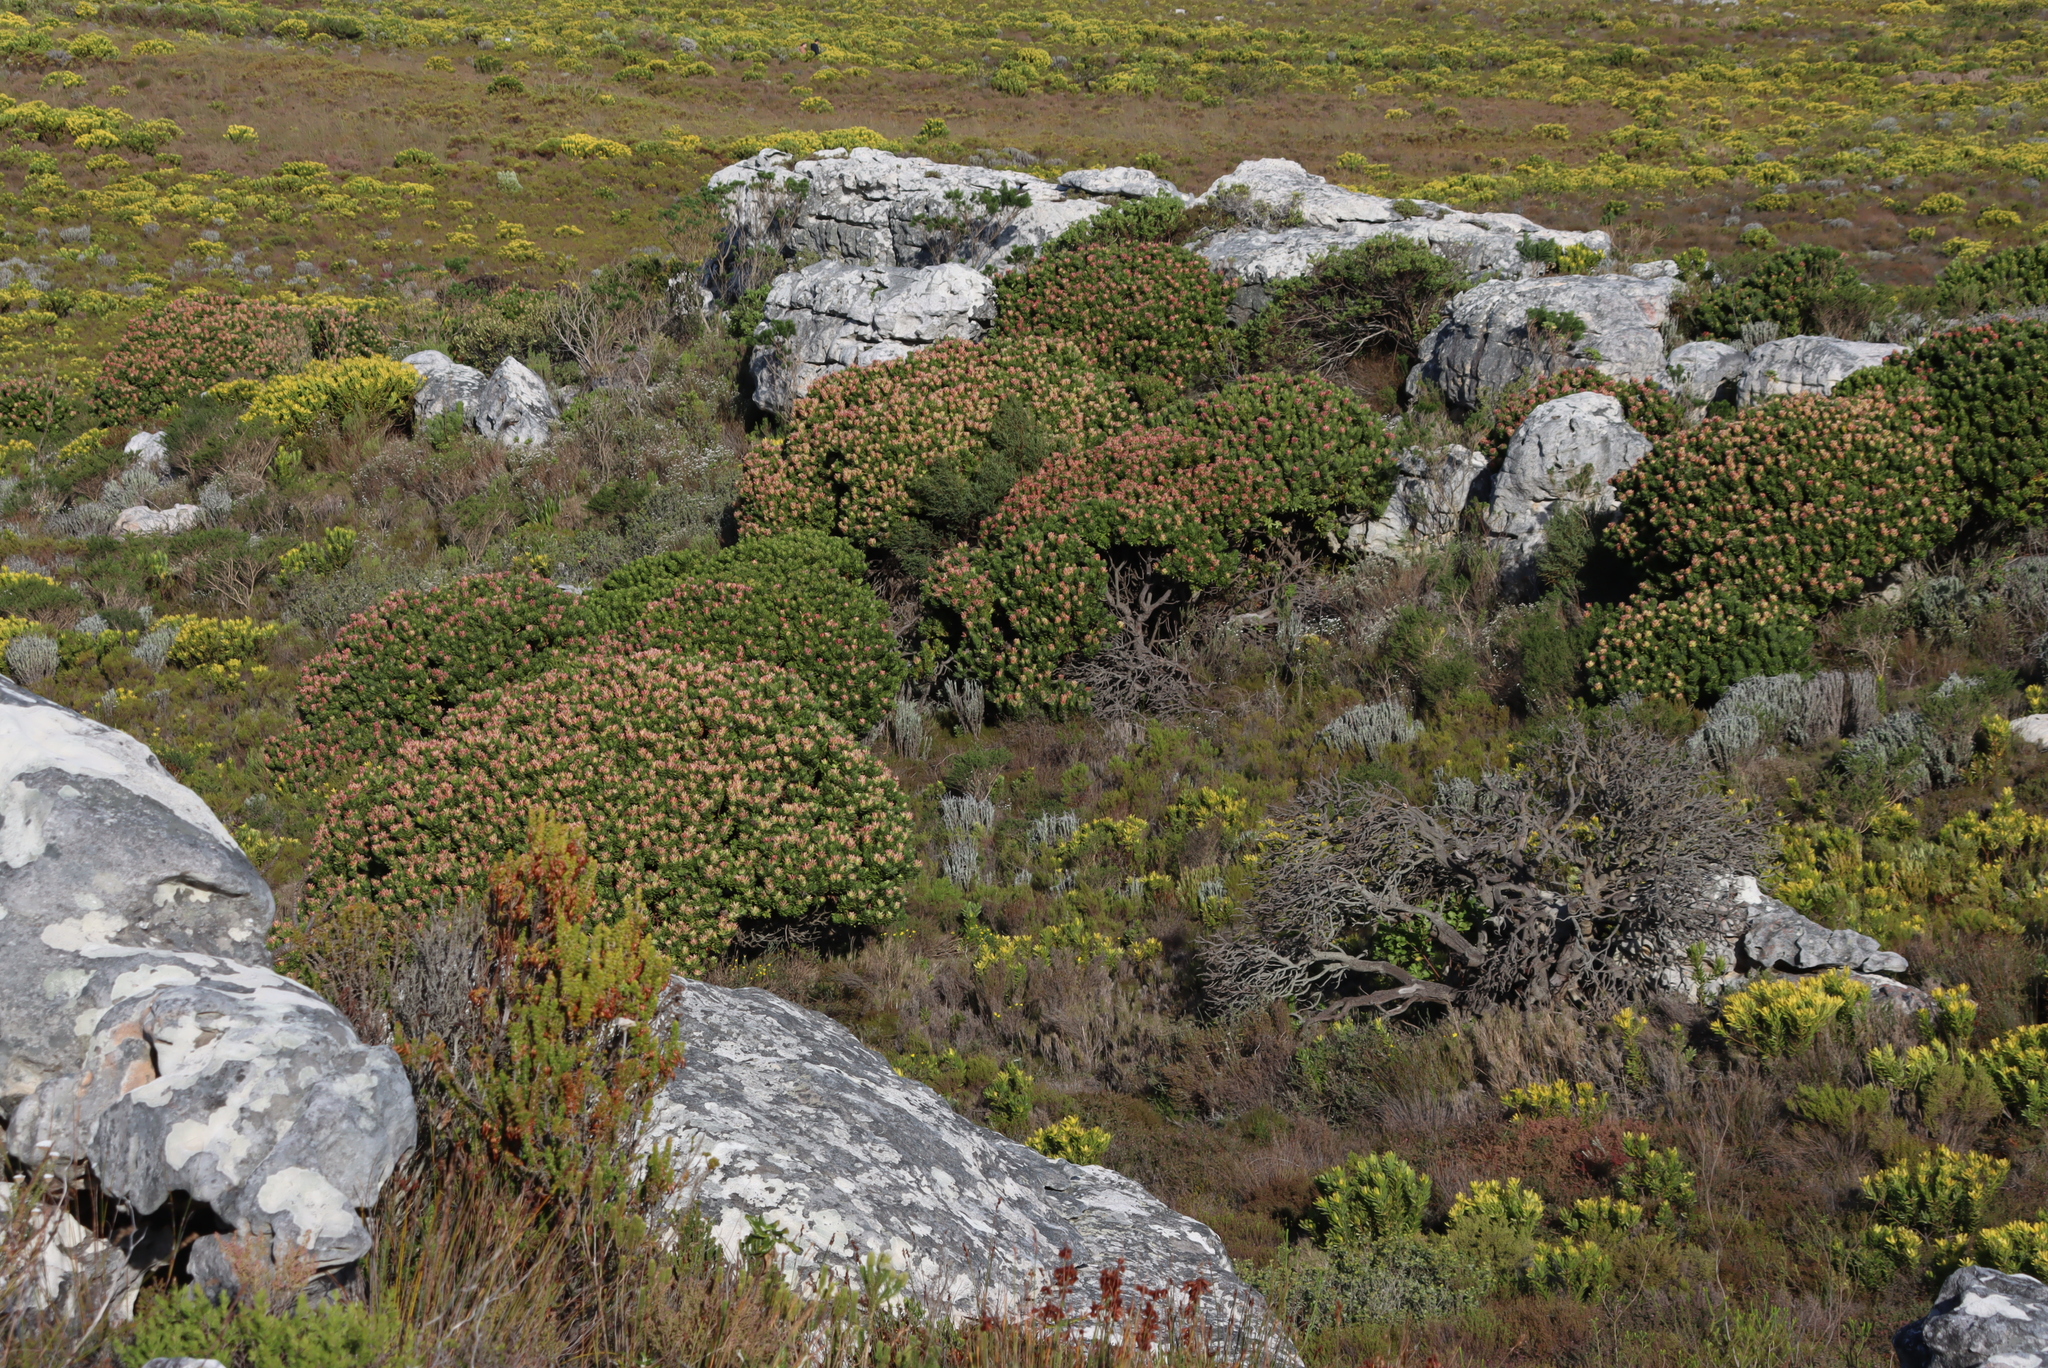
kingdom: Plantae
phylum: Tracheophyta
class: Magnoliopsida
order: Proteales
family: Proteaceae
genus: Mimetes
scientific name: Mimetes fimbriifolius
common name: Fringed bottlebrush
